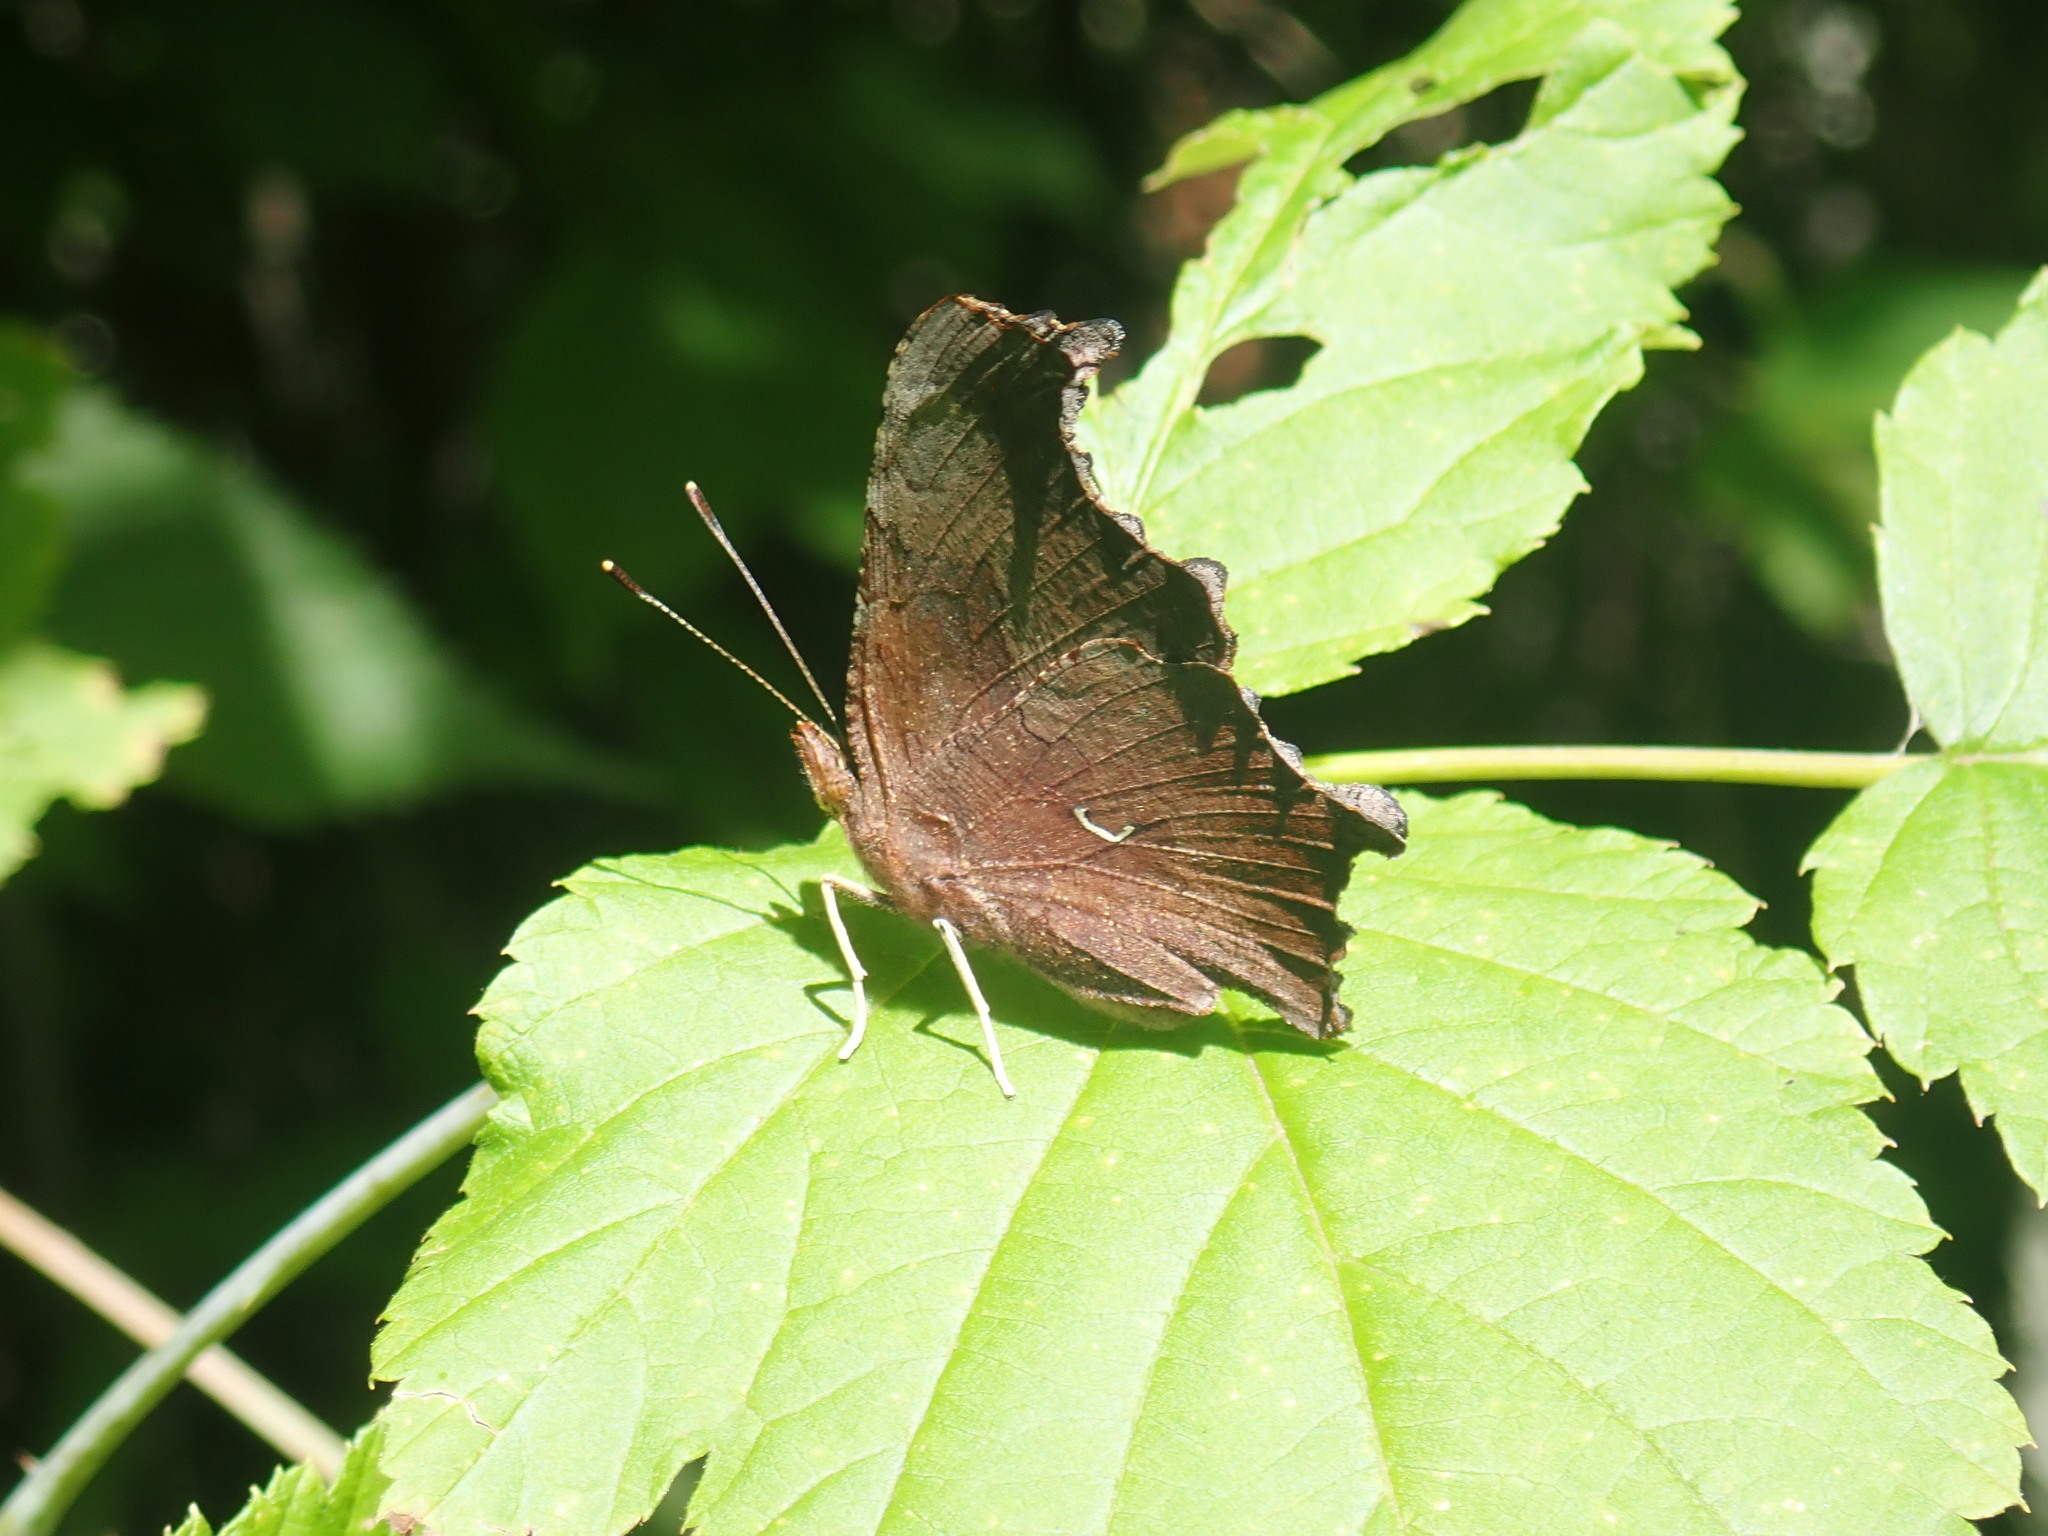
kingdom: Animalia
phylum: Arthropoda
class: Insecta
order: Lepidoptera
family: Nymphalidae
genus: Polygonia
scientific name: Polygonia comma
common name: Eastern comma
